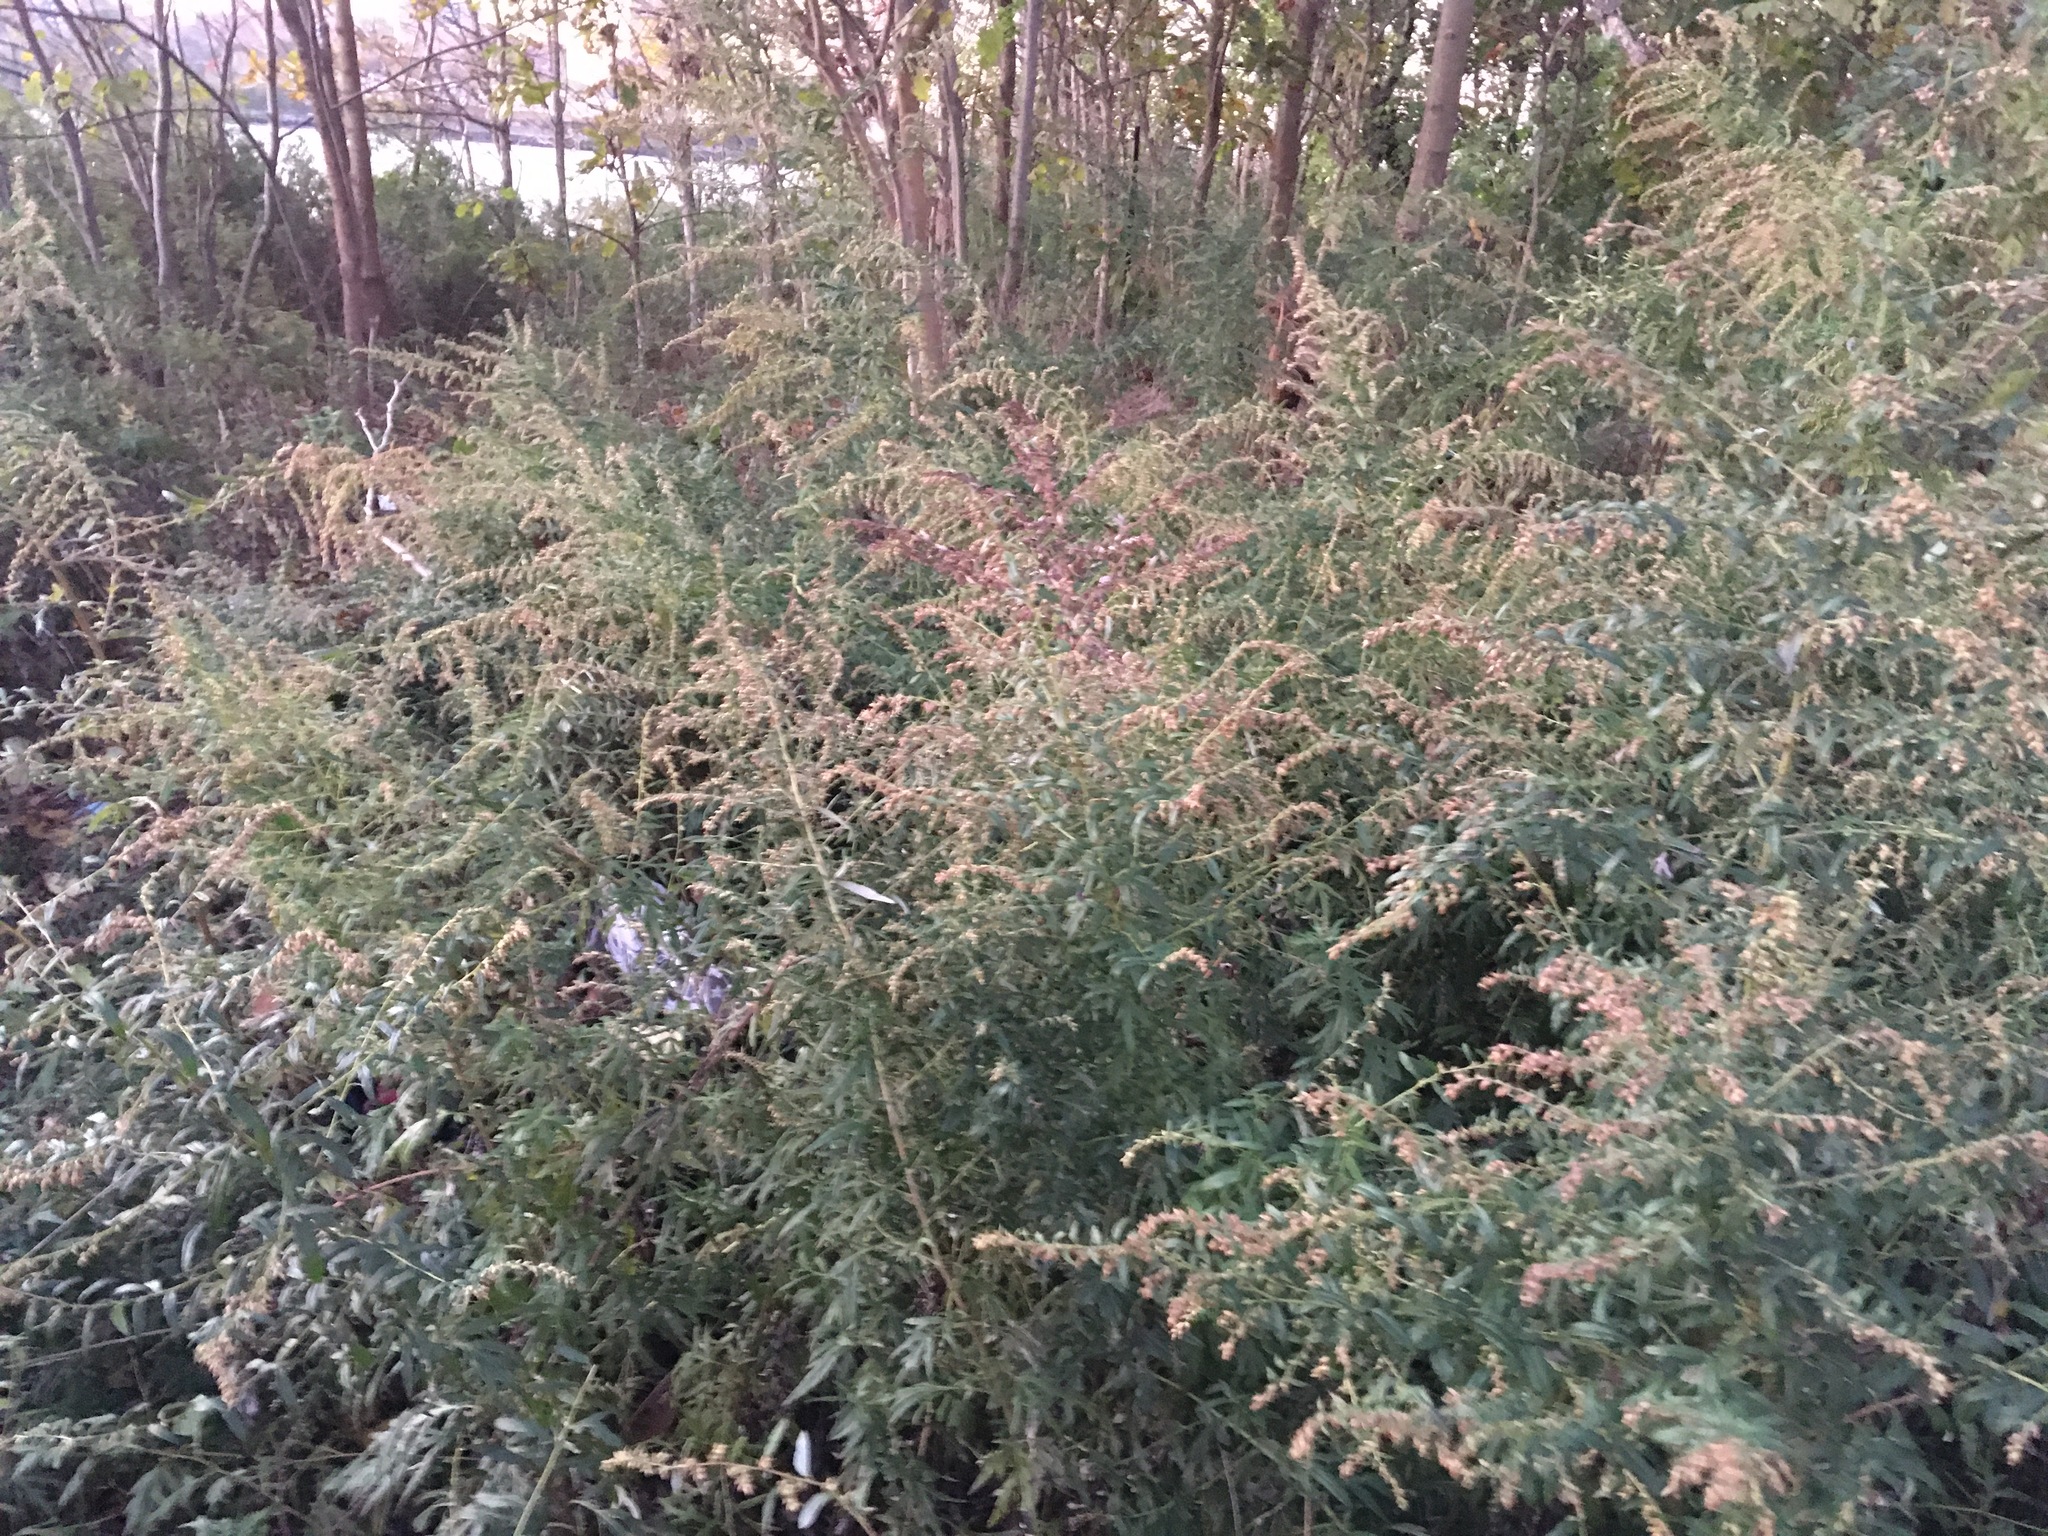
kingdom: Plantae
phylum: Tracheophyta
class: Magnoliopsida
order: Asterales
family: Asteraceae
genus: Artemisia
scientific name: Artemisia vulgaris
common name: Mugwort
